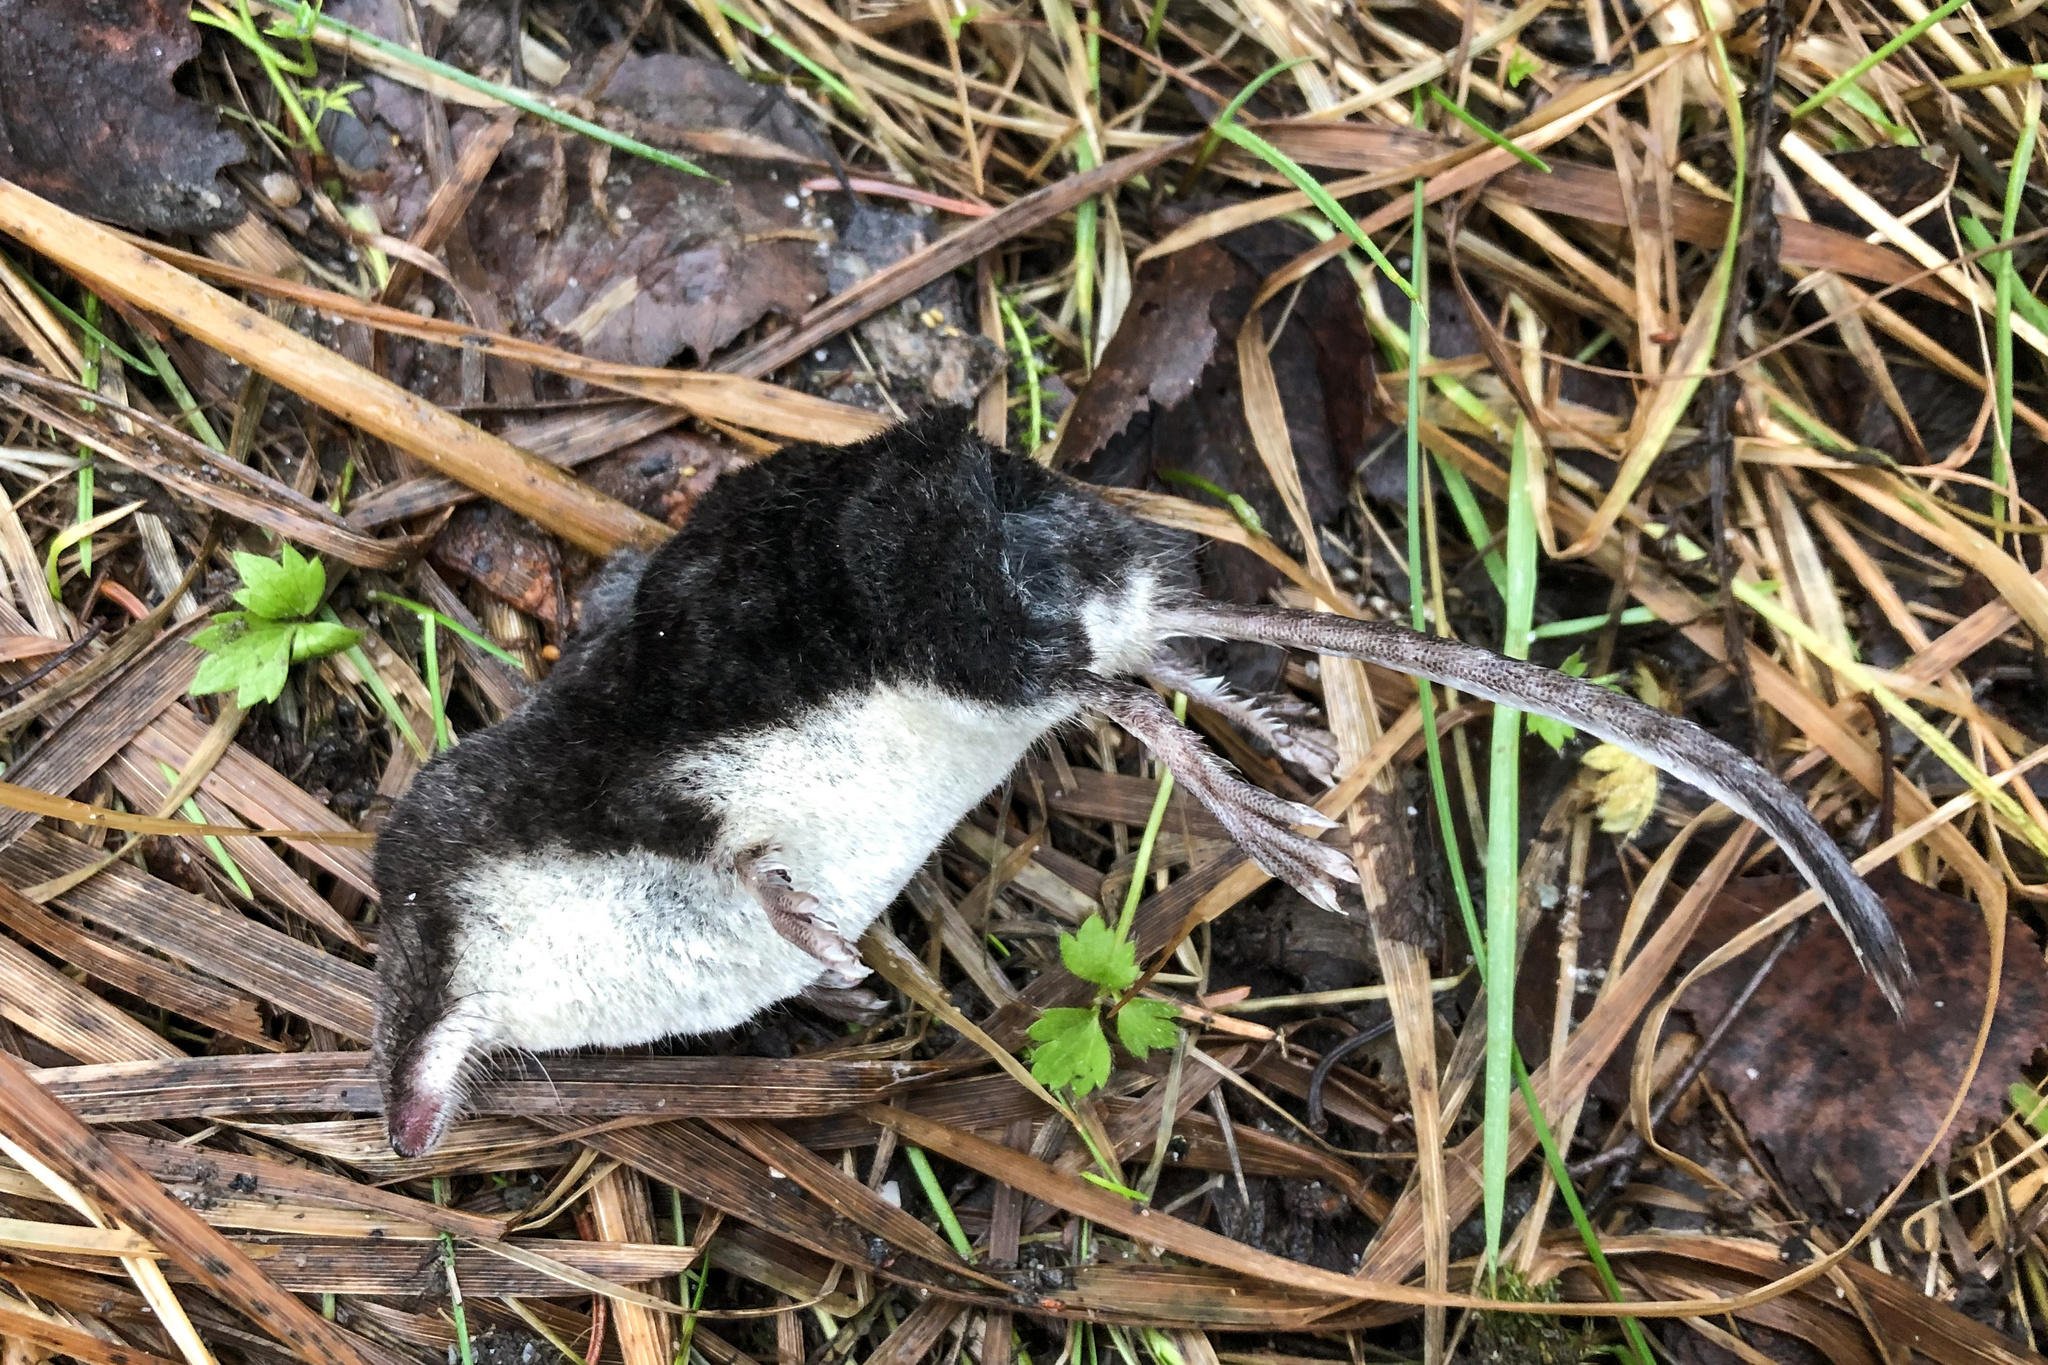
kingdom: Animalia
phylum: Chordata
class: Mammalia
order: Soricomorpha
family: Soricidae
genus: Neomys
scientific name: Neomys fodiens
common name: Eurasian water shrew
